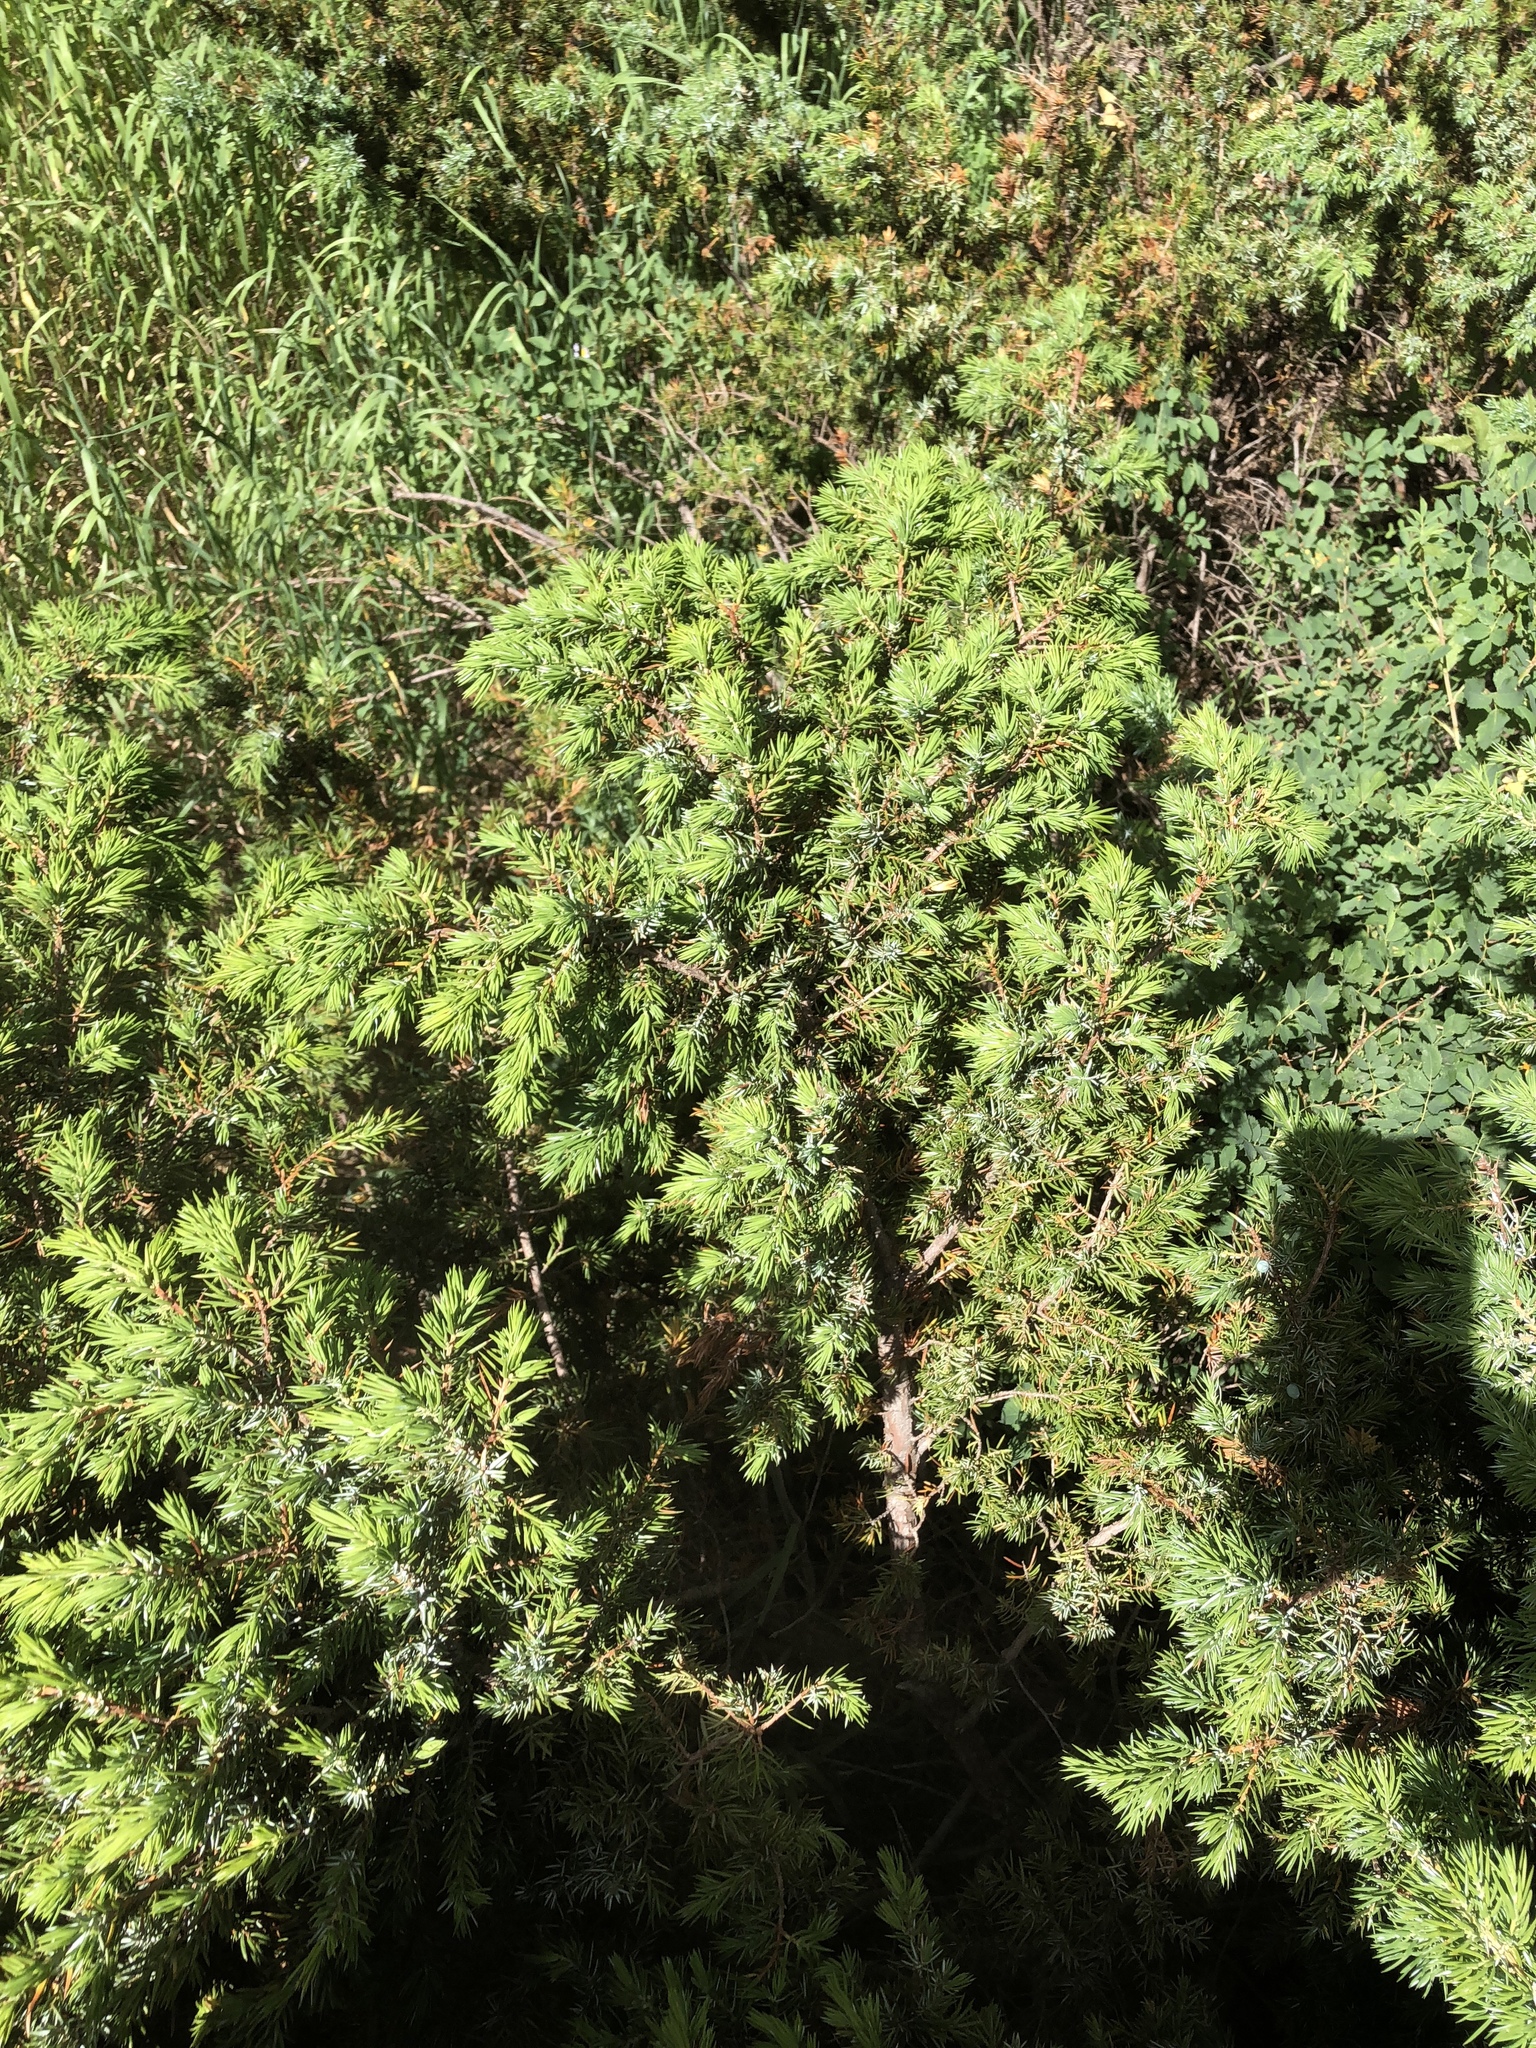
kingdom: Plantae
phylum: Tracheophyta
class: Pinopsida
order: Pinales
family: Cupressaceae
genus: Juniperus
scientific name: Juniperus communis
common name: Common juniper
